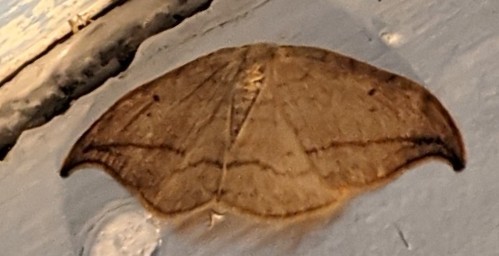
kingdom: Animalia
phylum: Arthropoda
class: Insecta
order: Lepidoptera
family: Drepanidae
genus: Drepana
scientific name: Drepana arcuata
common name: Arched hooktip moth
